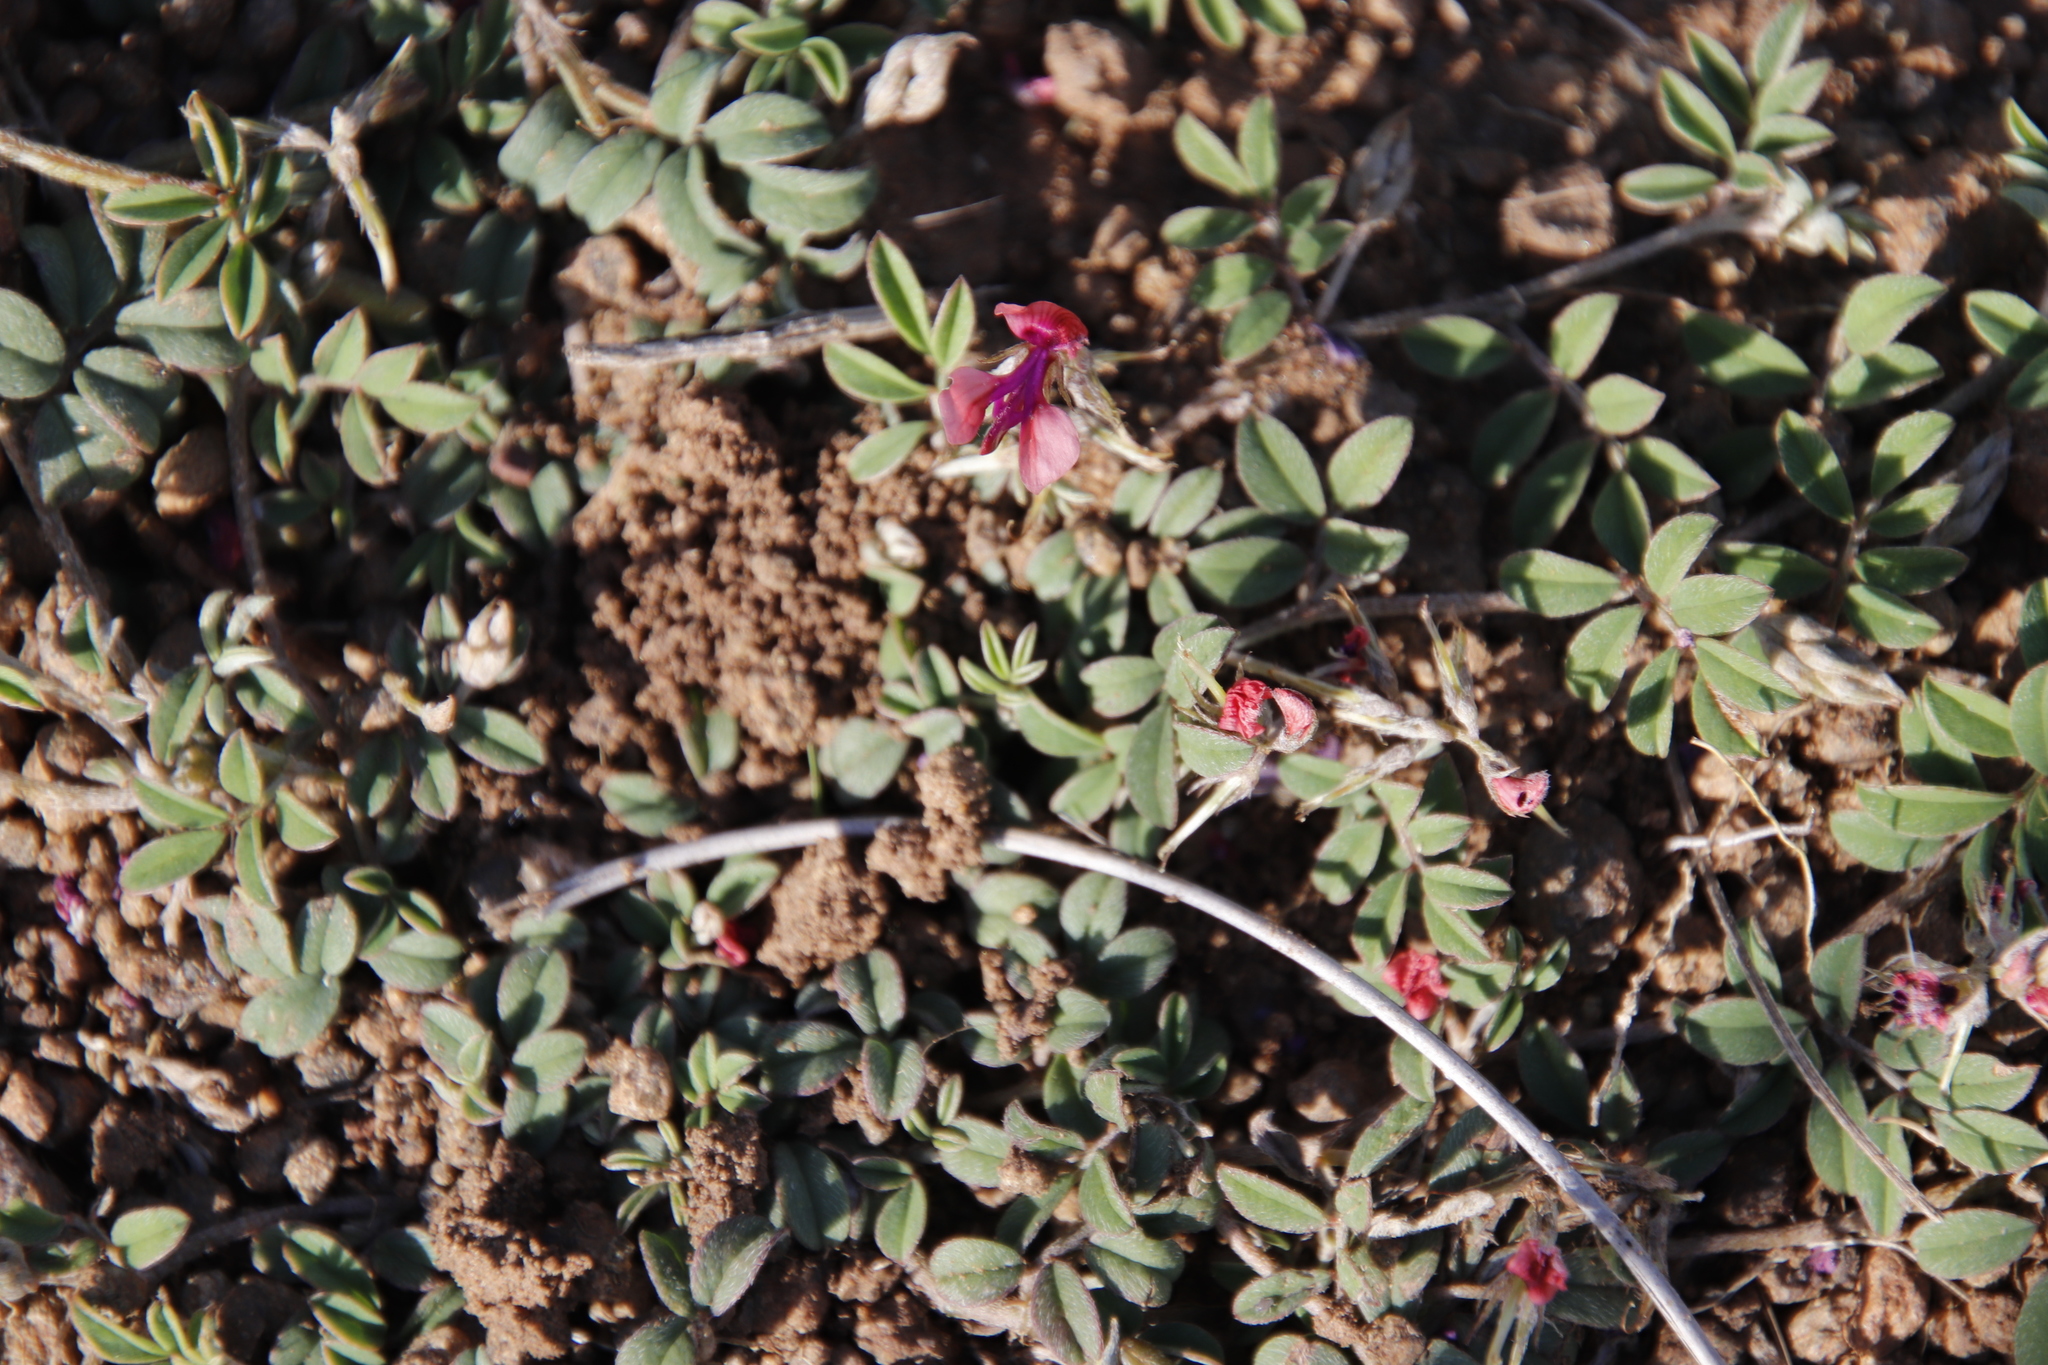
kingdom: Plantae
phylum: Tracheophyta
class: Magnoliopsida
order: Fabales
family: Fabaceae
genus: Indigofera
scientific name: Indigofera alternans
